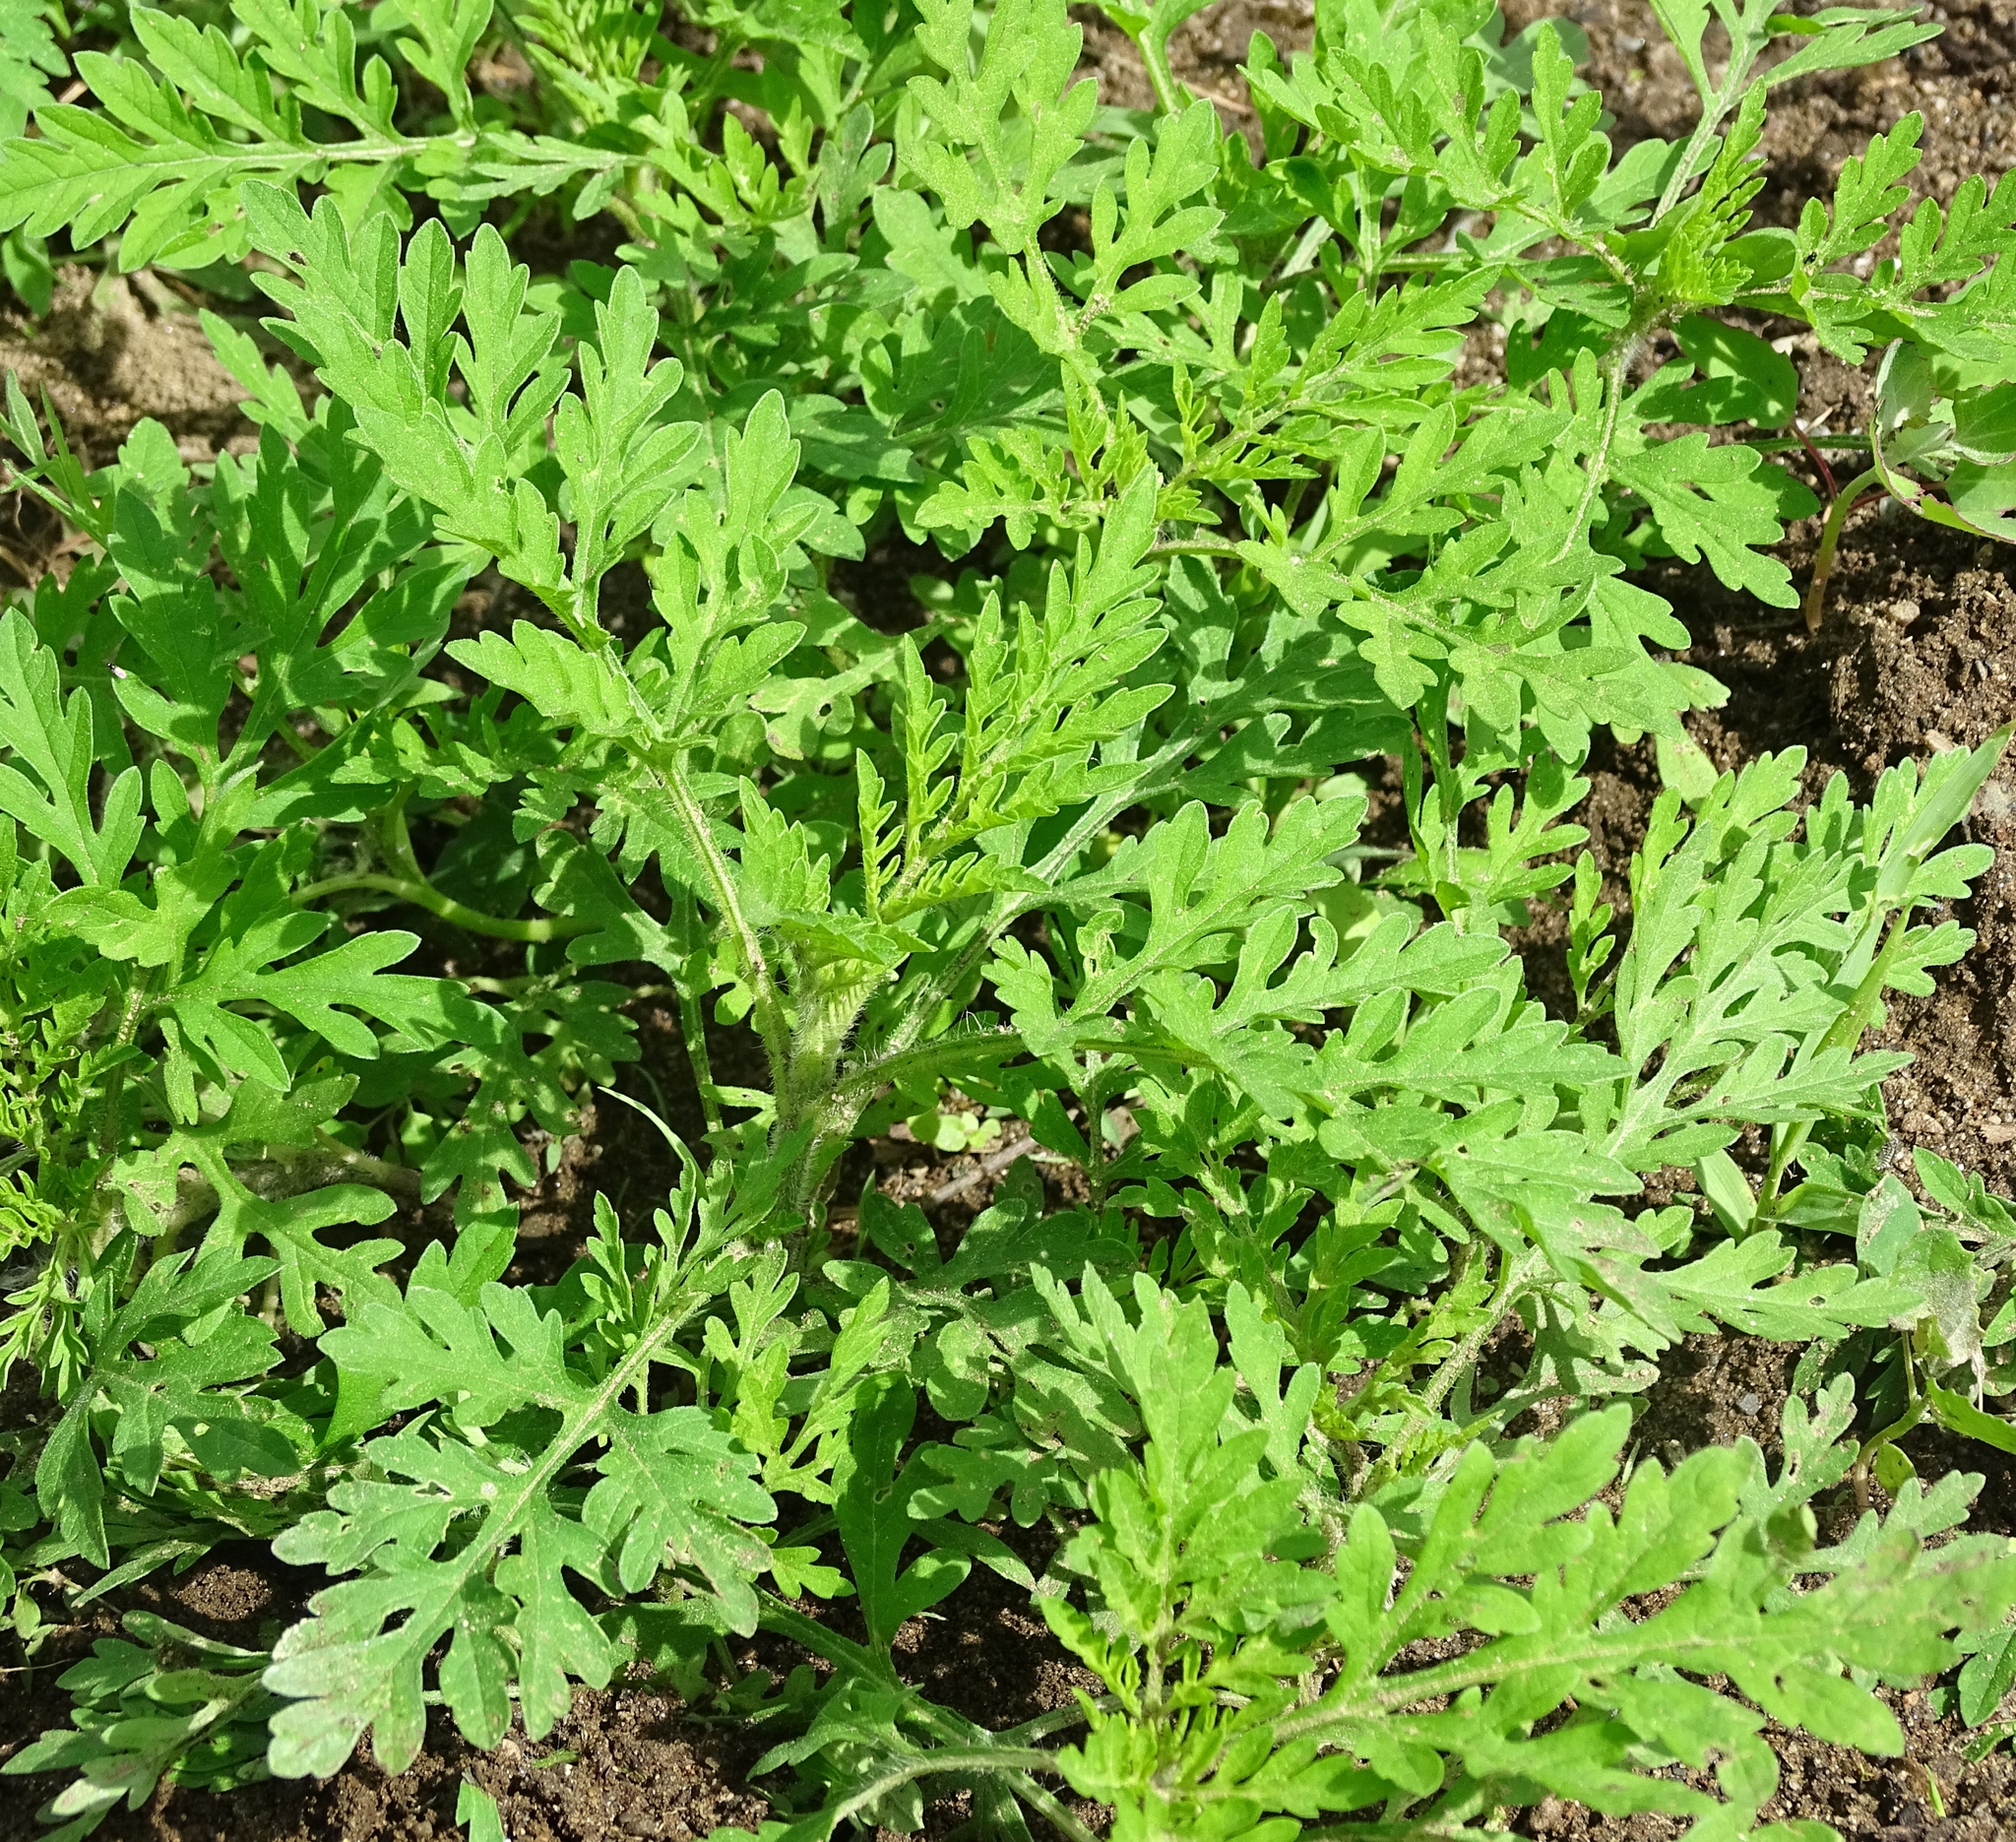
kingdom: Plantae
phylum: Tracheophyta
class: Magnoliopsida
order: Asterales
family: Asteraceae
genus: Ambrosia
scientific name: Ambrosia artemisiifolia
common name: Annual ragweed
